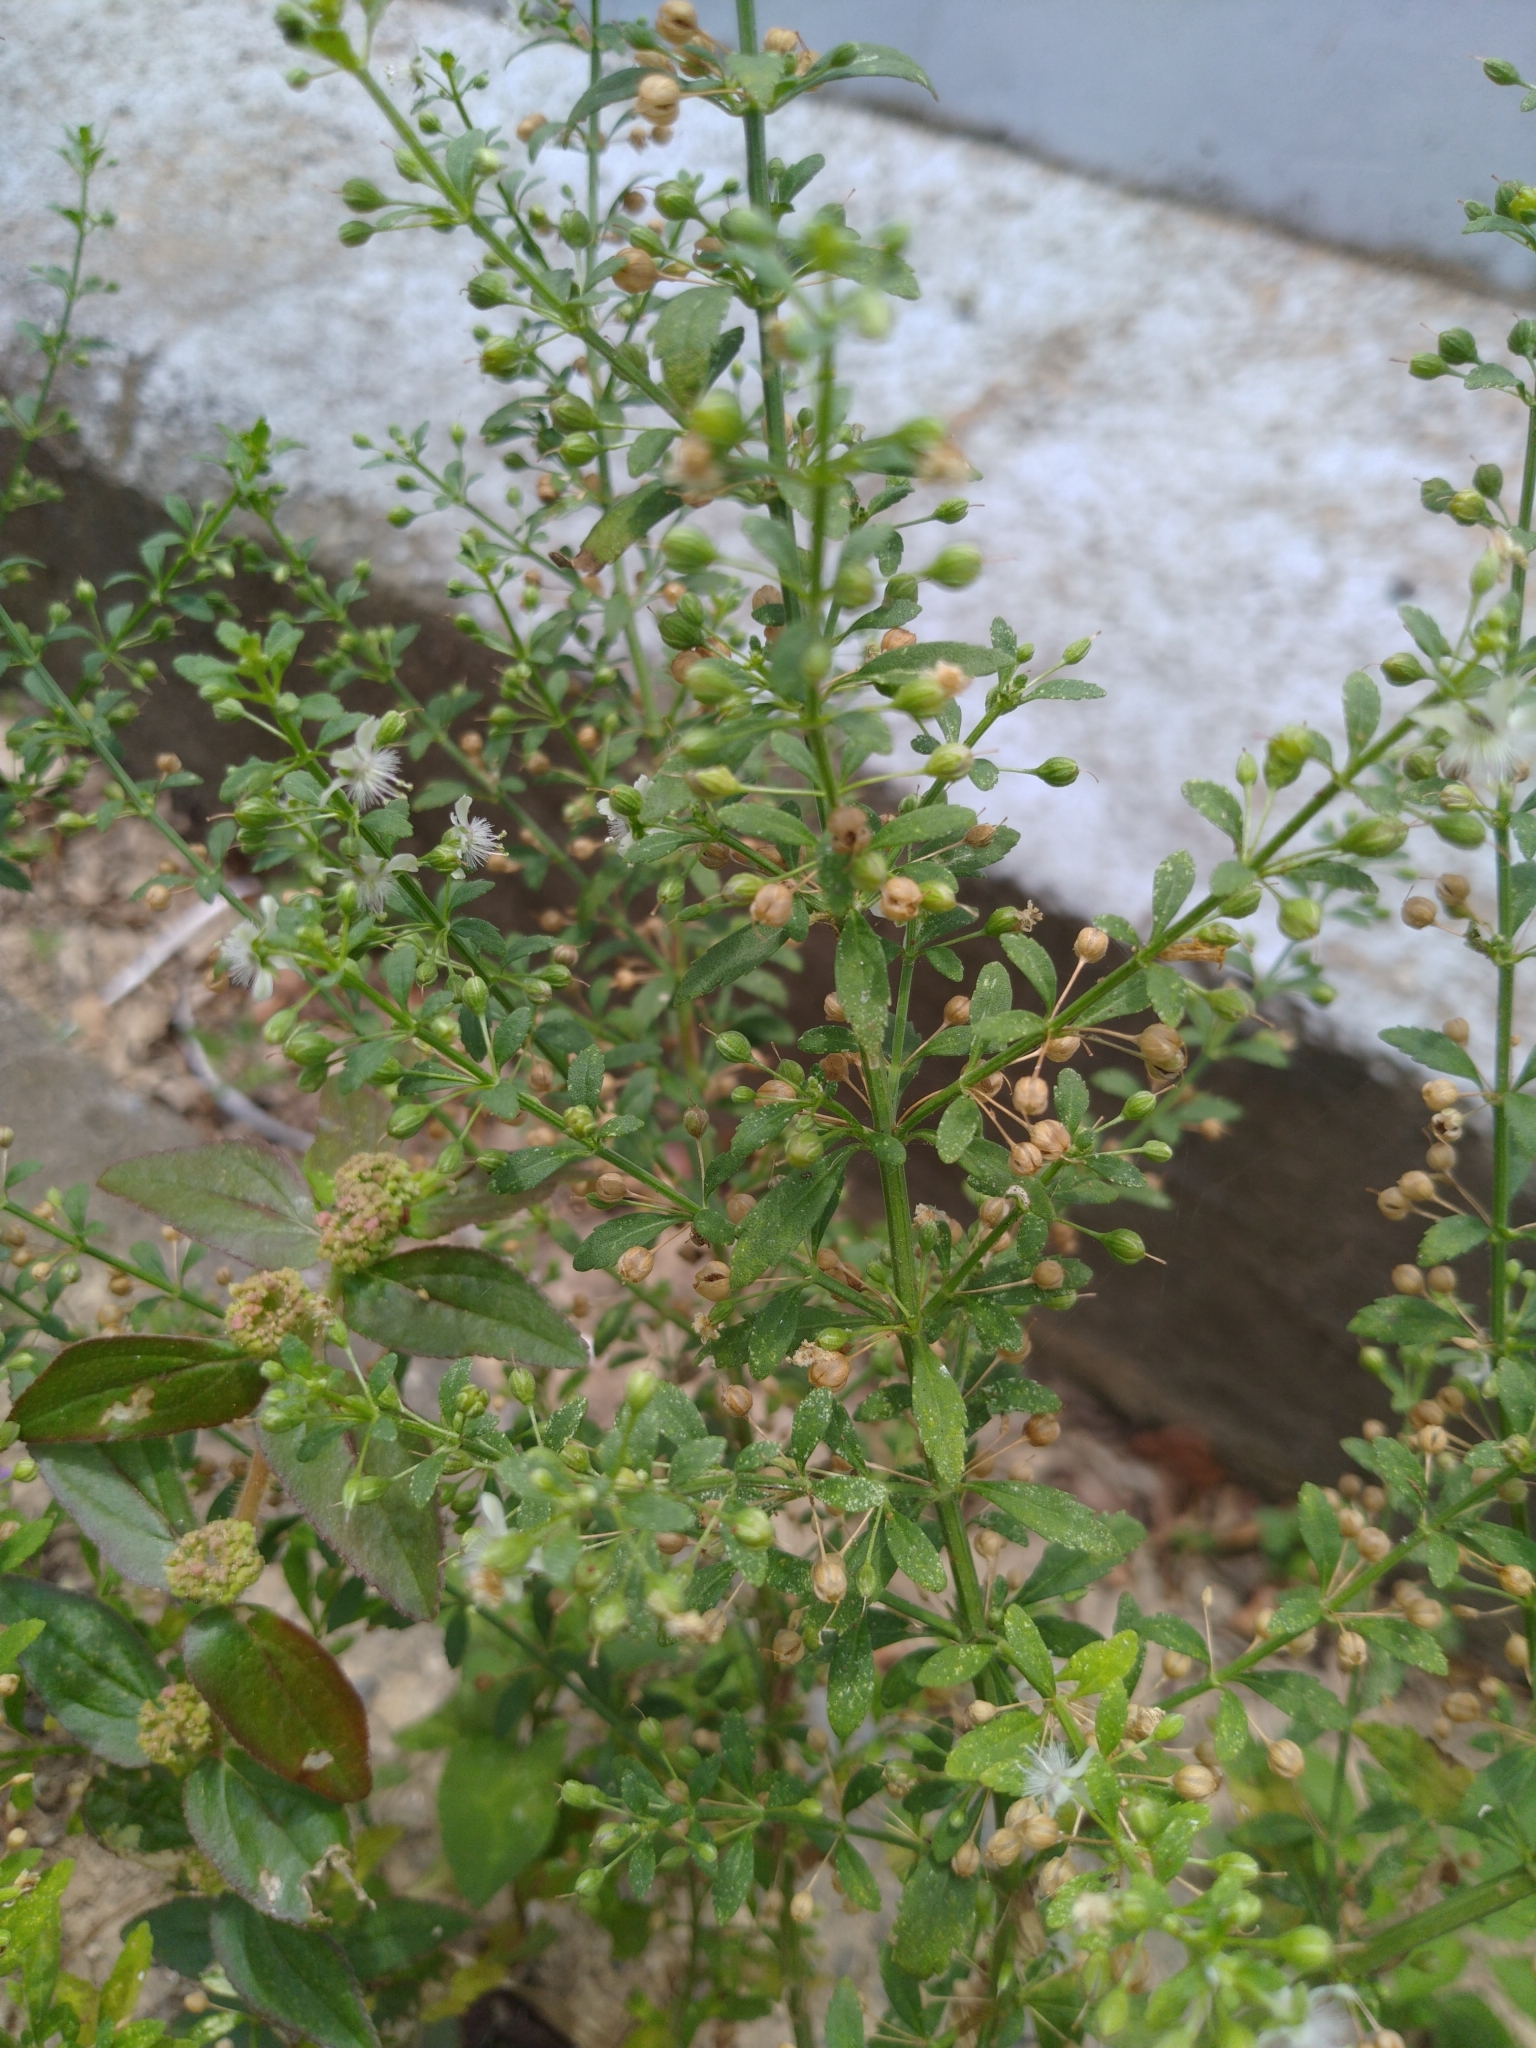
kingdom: Plantae
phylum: Tracheophyta
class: Magnoliopsida
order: Lamiales
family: Plantaginaceae
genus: Scoparia
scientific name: Scoparia dulcis
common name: Scoparia-weed
